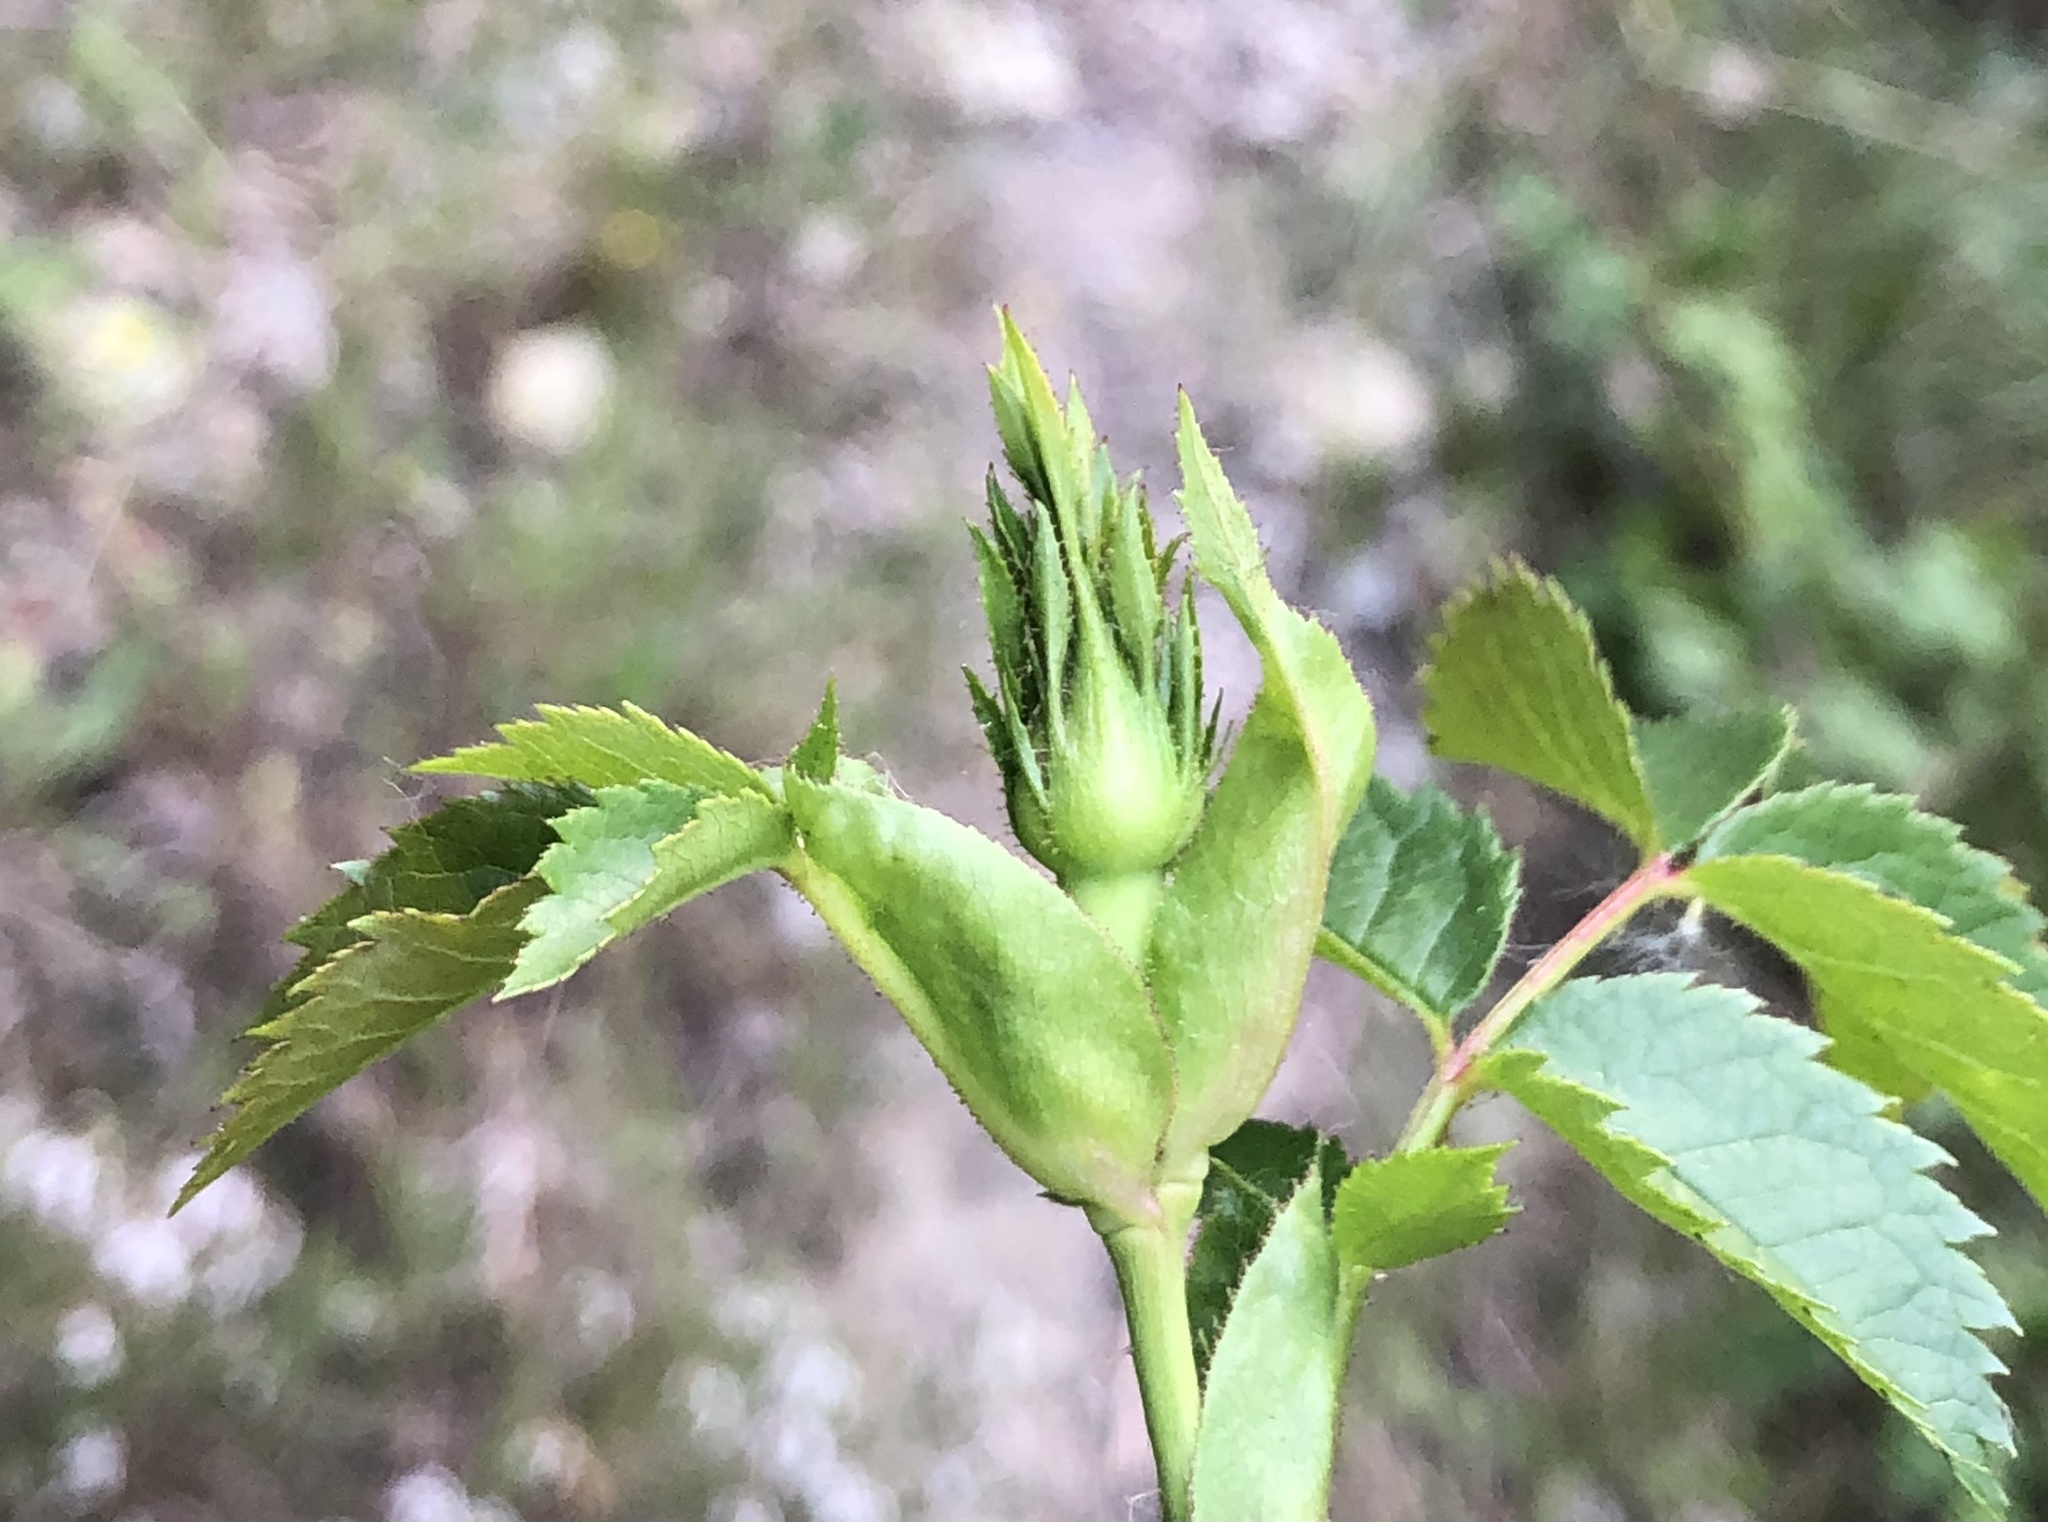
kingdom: Plantae
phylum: Tracheophyta
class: Magnoliopsida
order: Rosales
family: Rosaceae
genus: Rosa
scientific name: Rosa canina
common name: Dog rose
